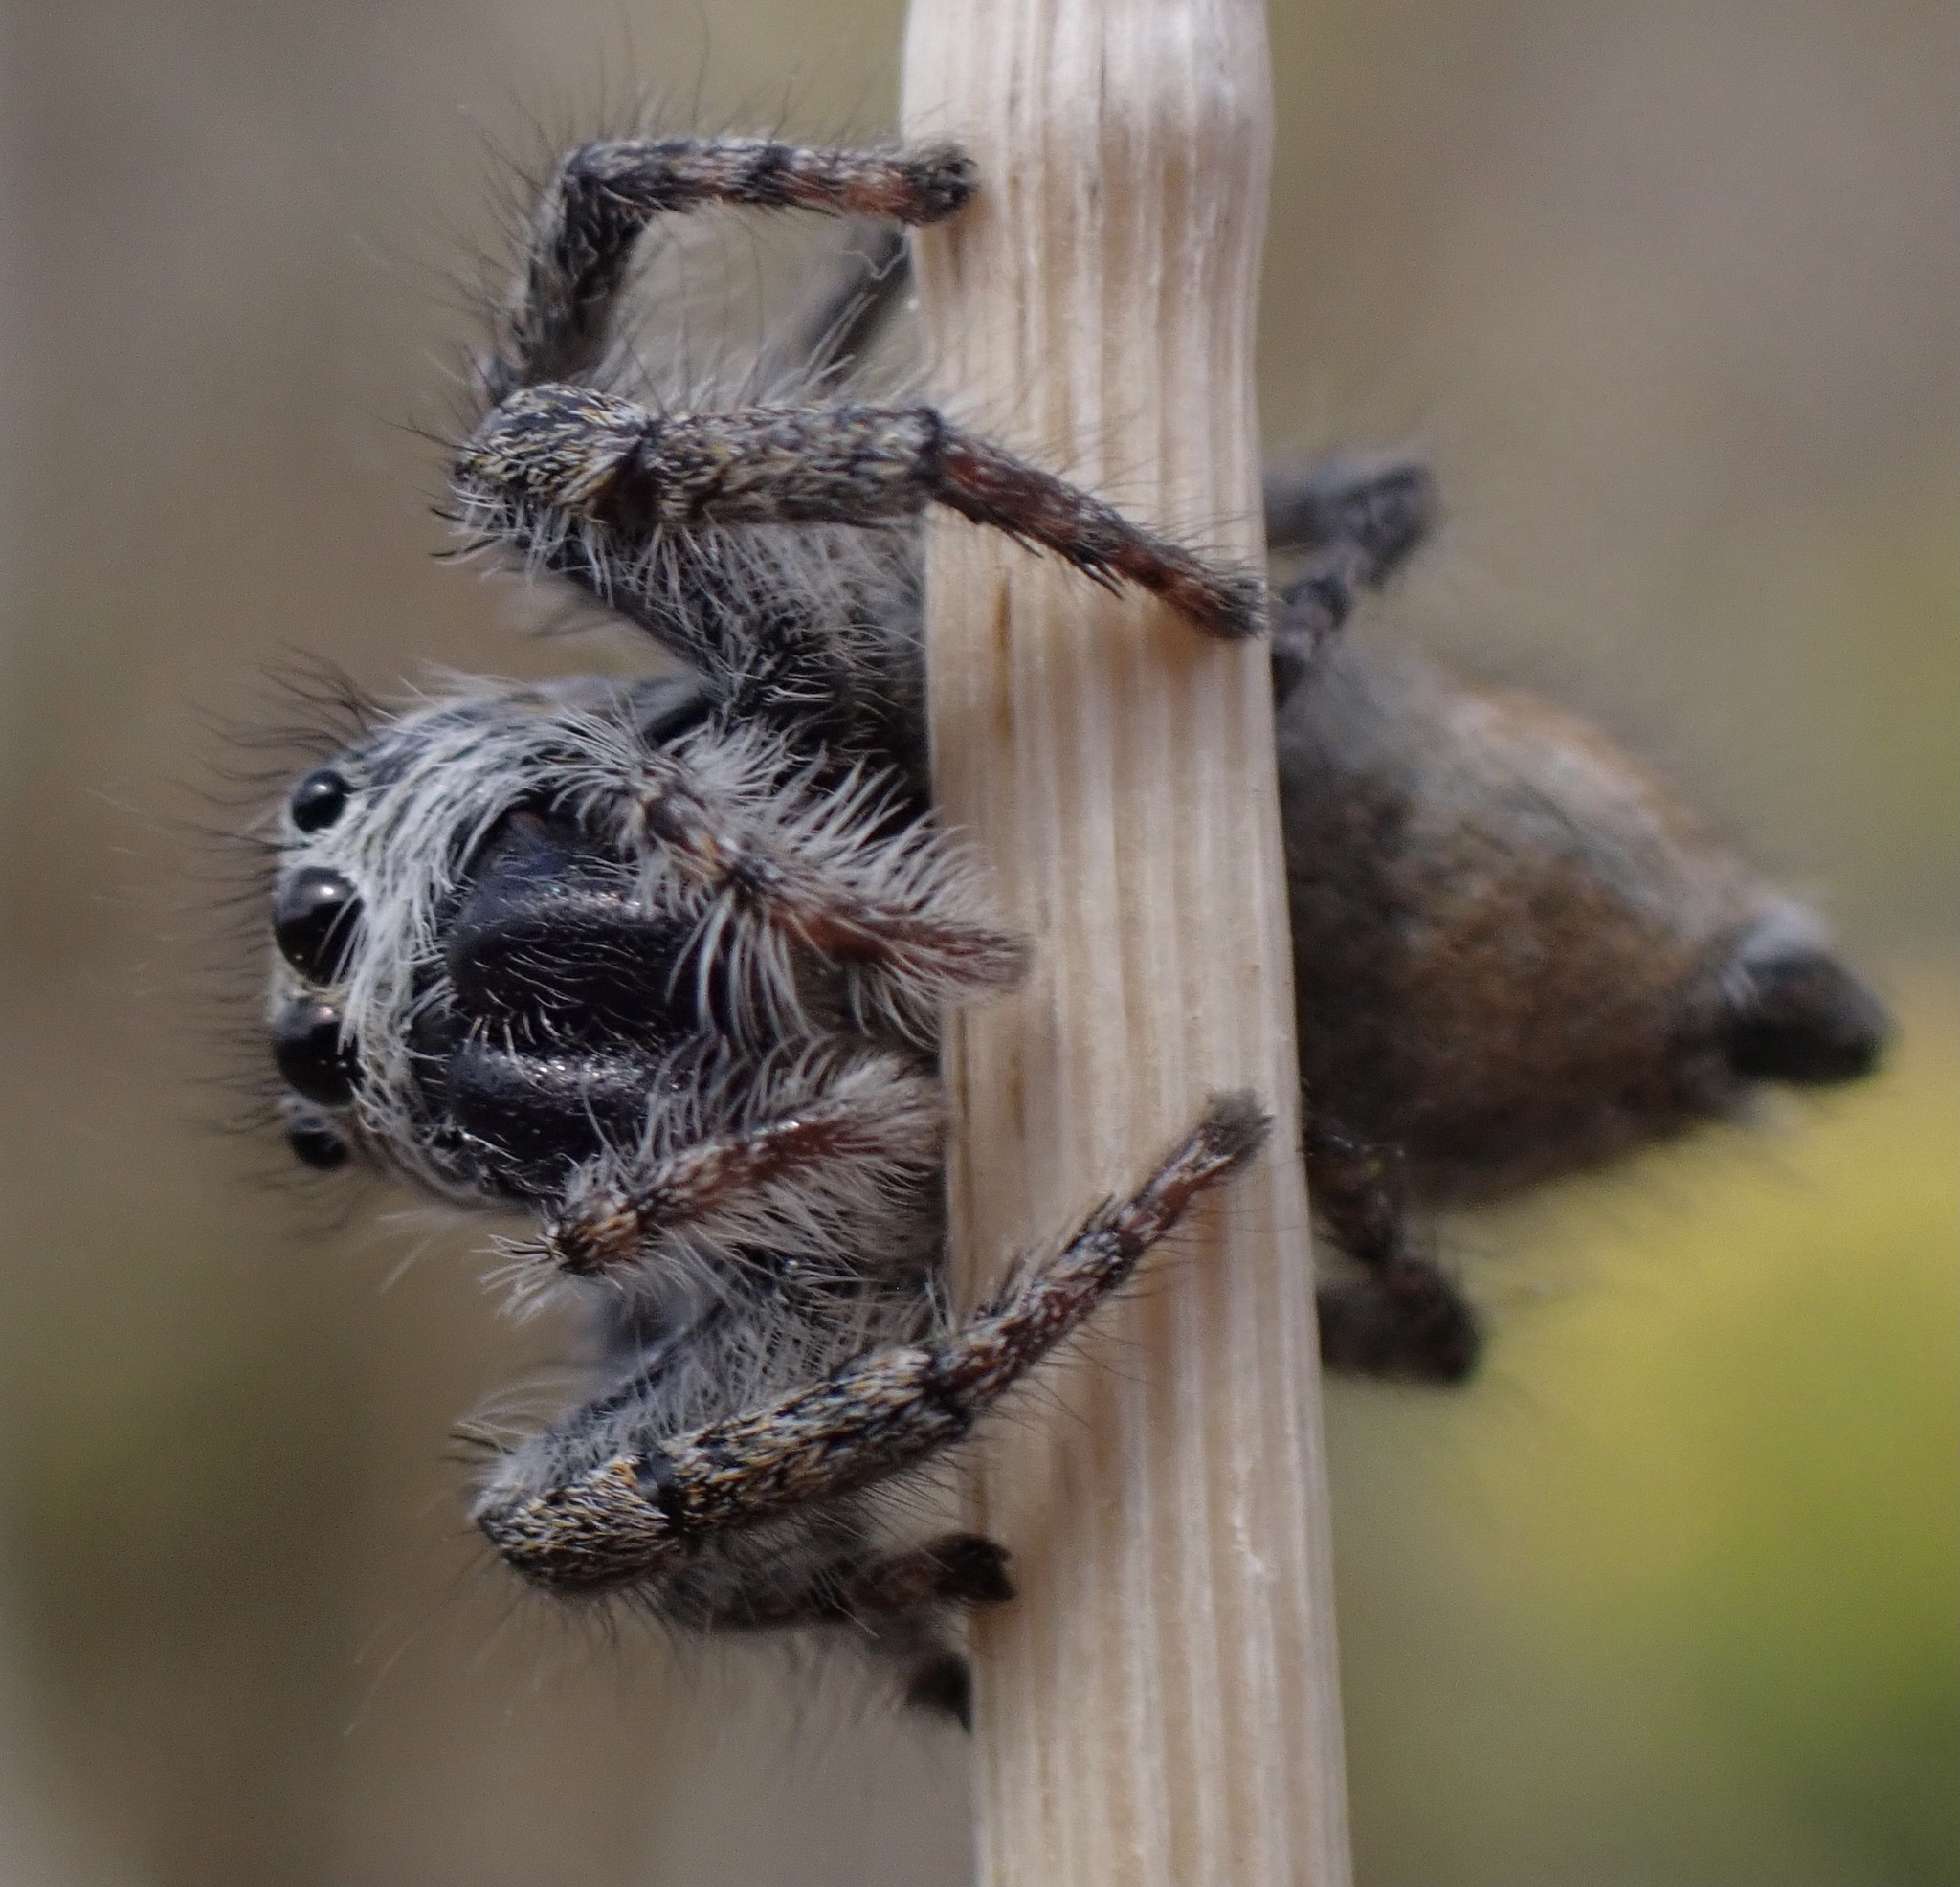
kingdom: Animalia
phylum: Arthropoda
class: Arachnida
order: Araneae
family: Salticidae
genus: Philaeus
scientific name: Philaeus chrysops
